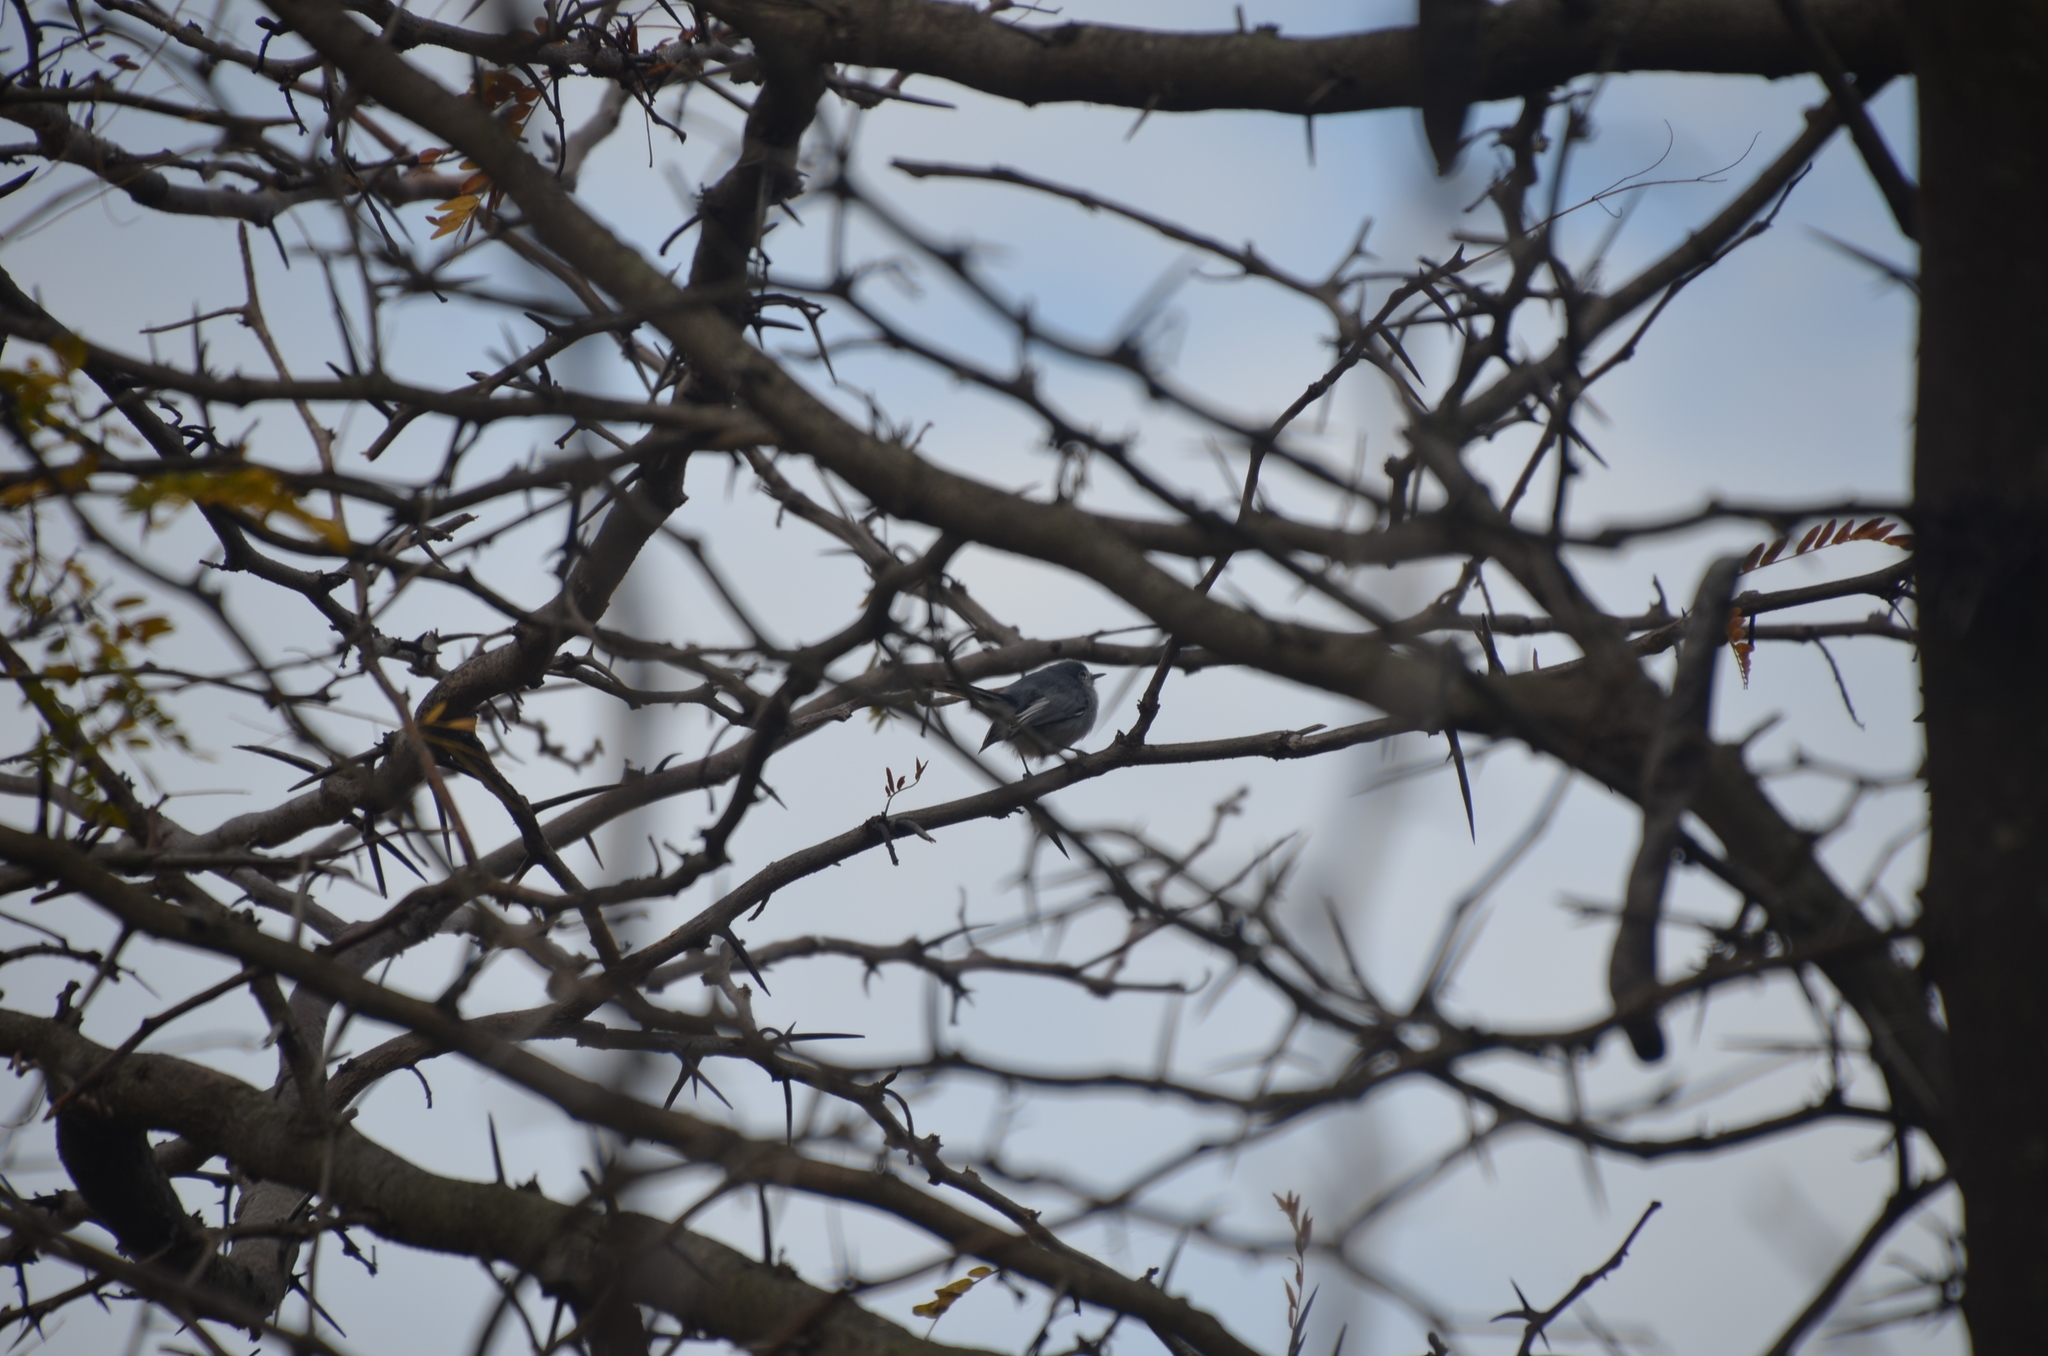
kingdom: Animalia
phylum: Chordata
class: Aves
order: Passeriformes
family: Polioptilidae
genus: Polioptila
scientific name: Polioptila dumicola
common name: Masked gnatcatcher
